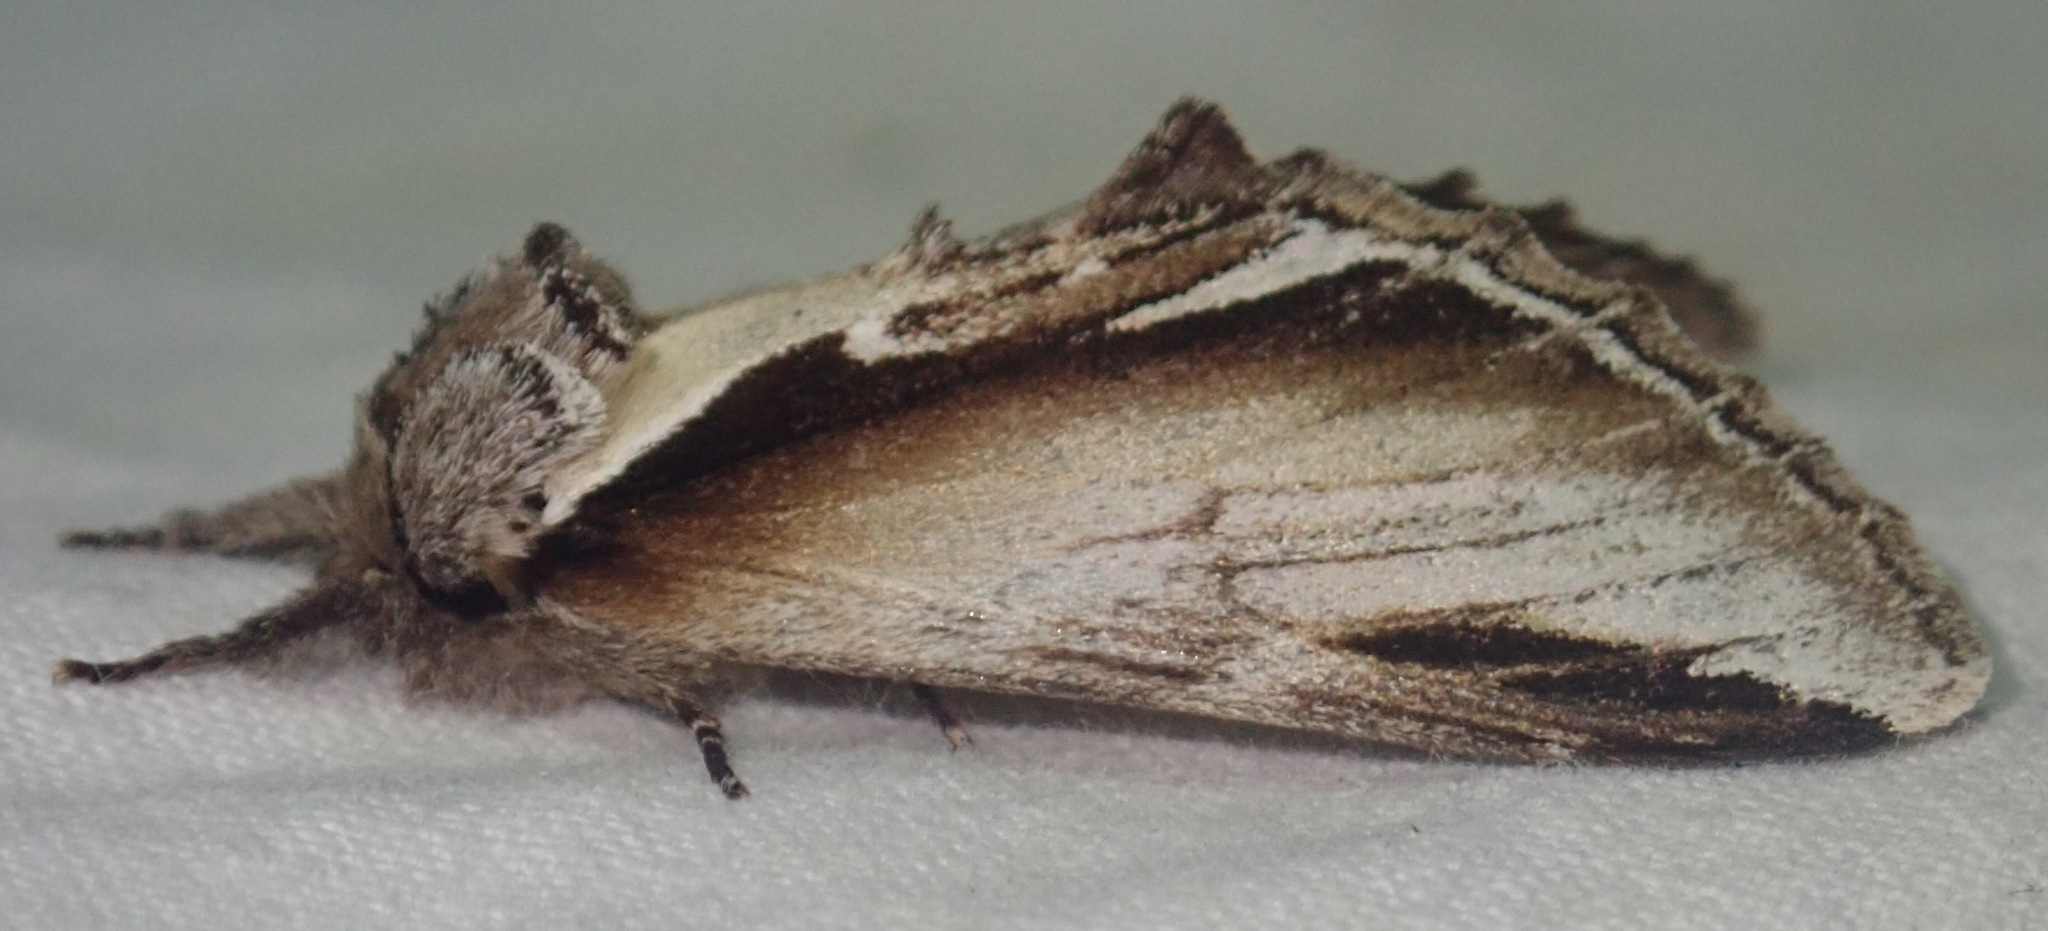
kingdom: Animalia
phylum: Arthropoda
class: Insecta
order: Lepidoptera
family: Notodontidae
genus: Pheosia
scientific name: Pheosia gnoma
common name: Lesser swallow prominent
